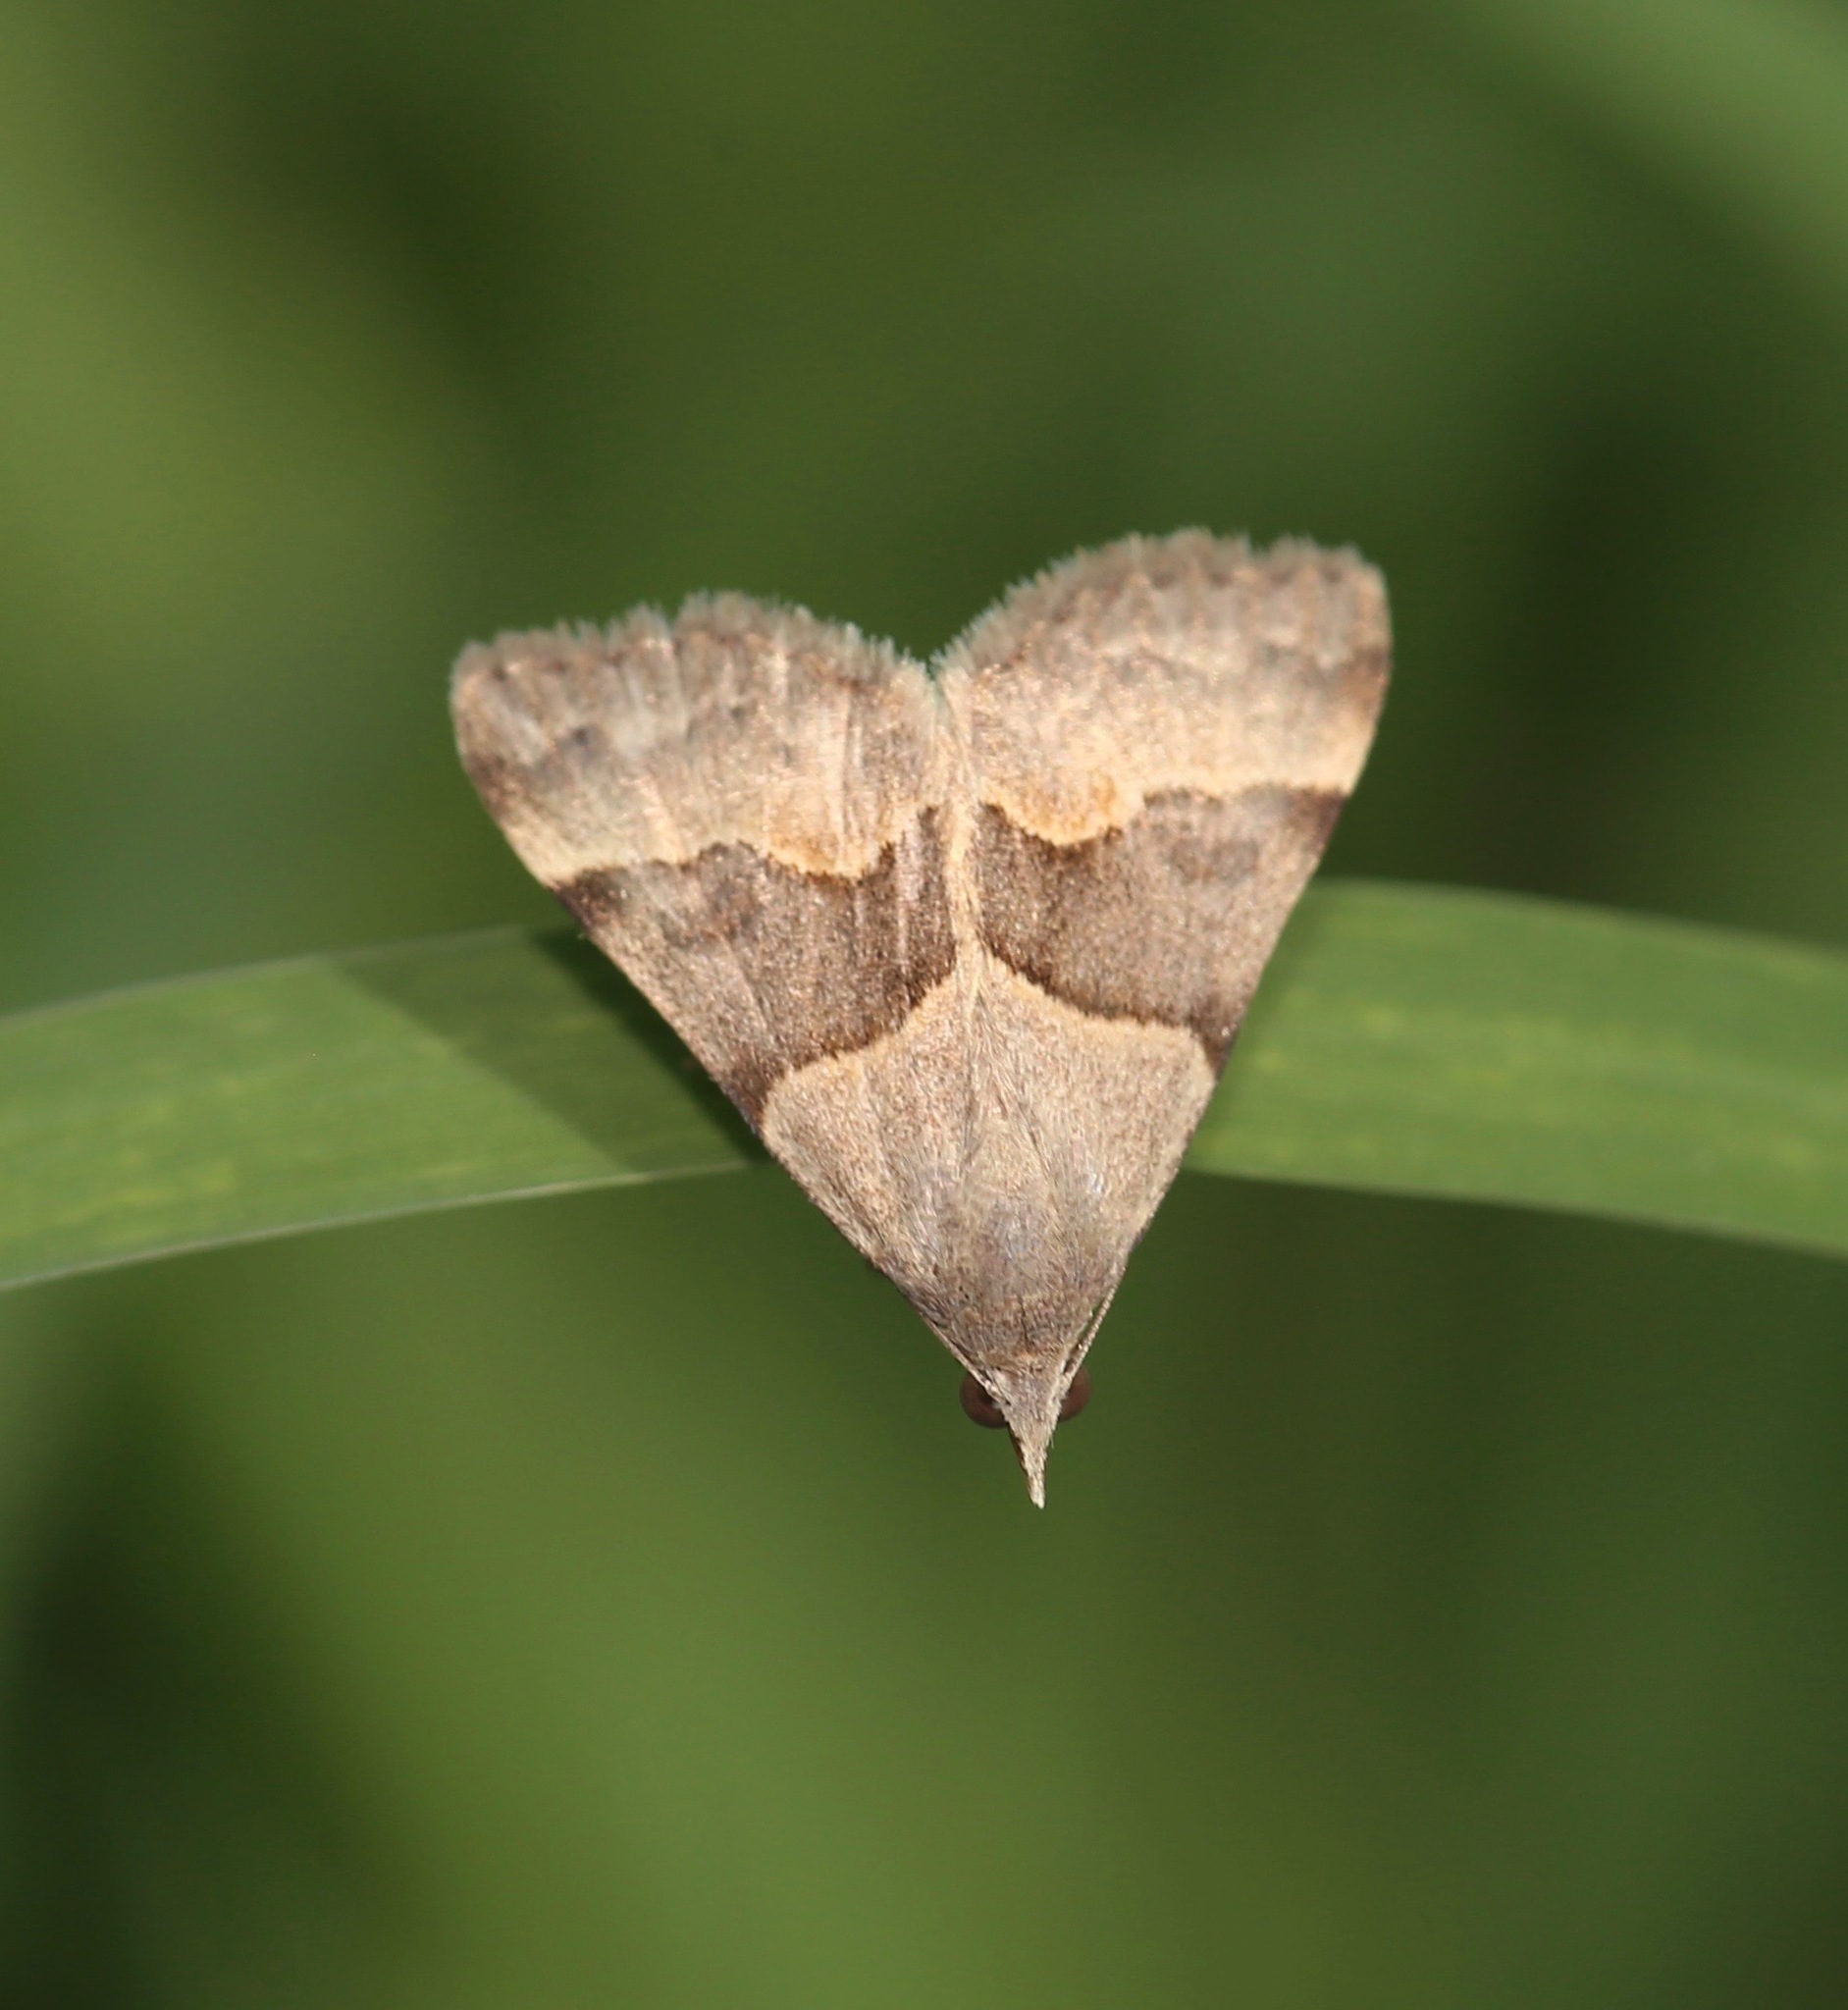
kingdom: Animalia
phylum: Arthropoda
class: Insecta
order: Lepidoptera
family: Erebidae
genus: Hemeroplanis
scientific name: Hemeroplanis incusalis
